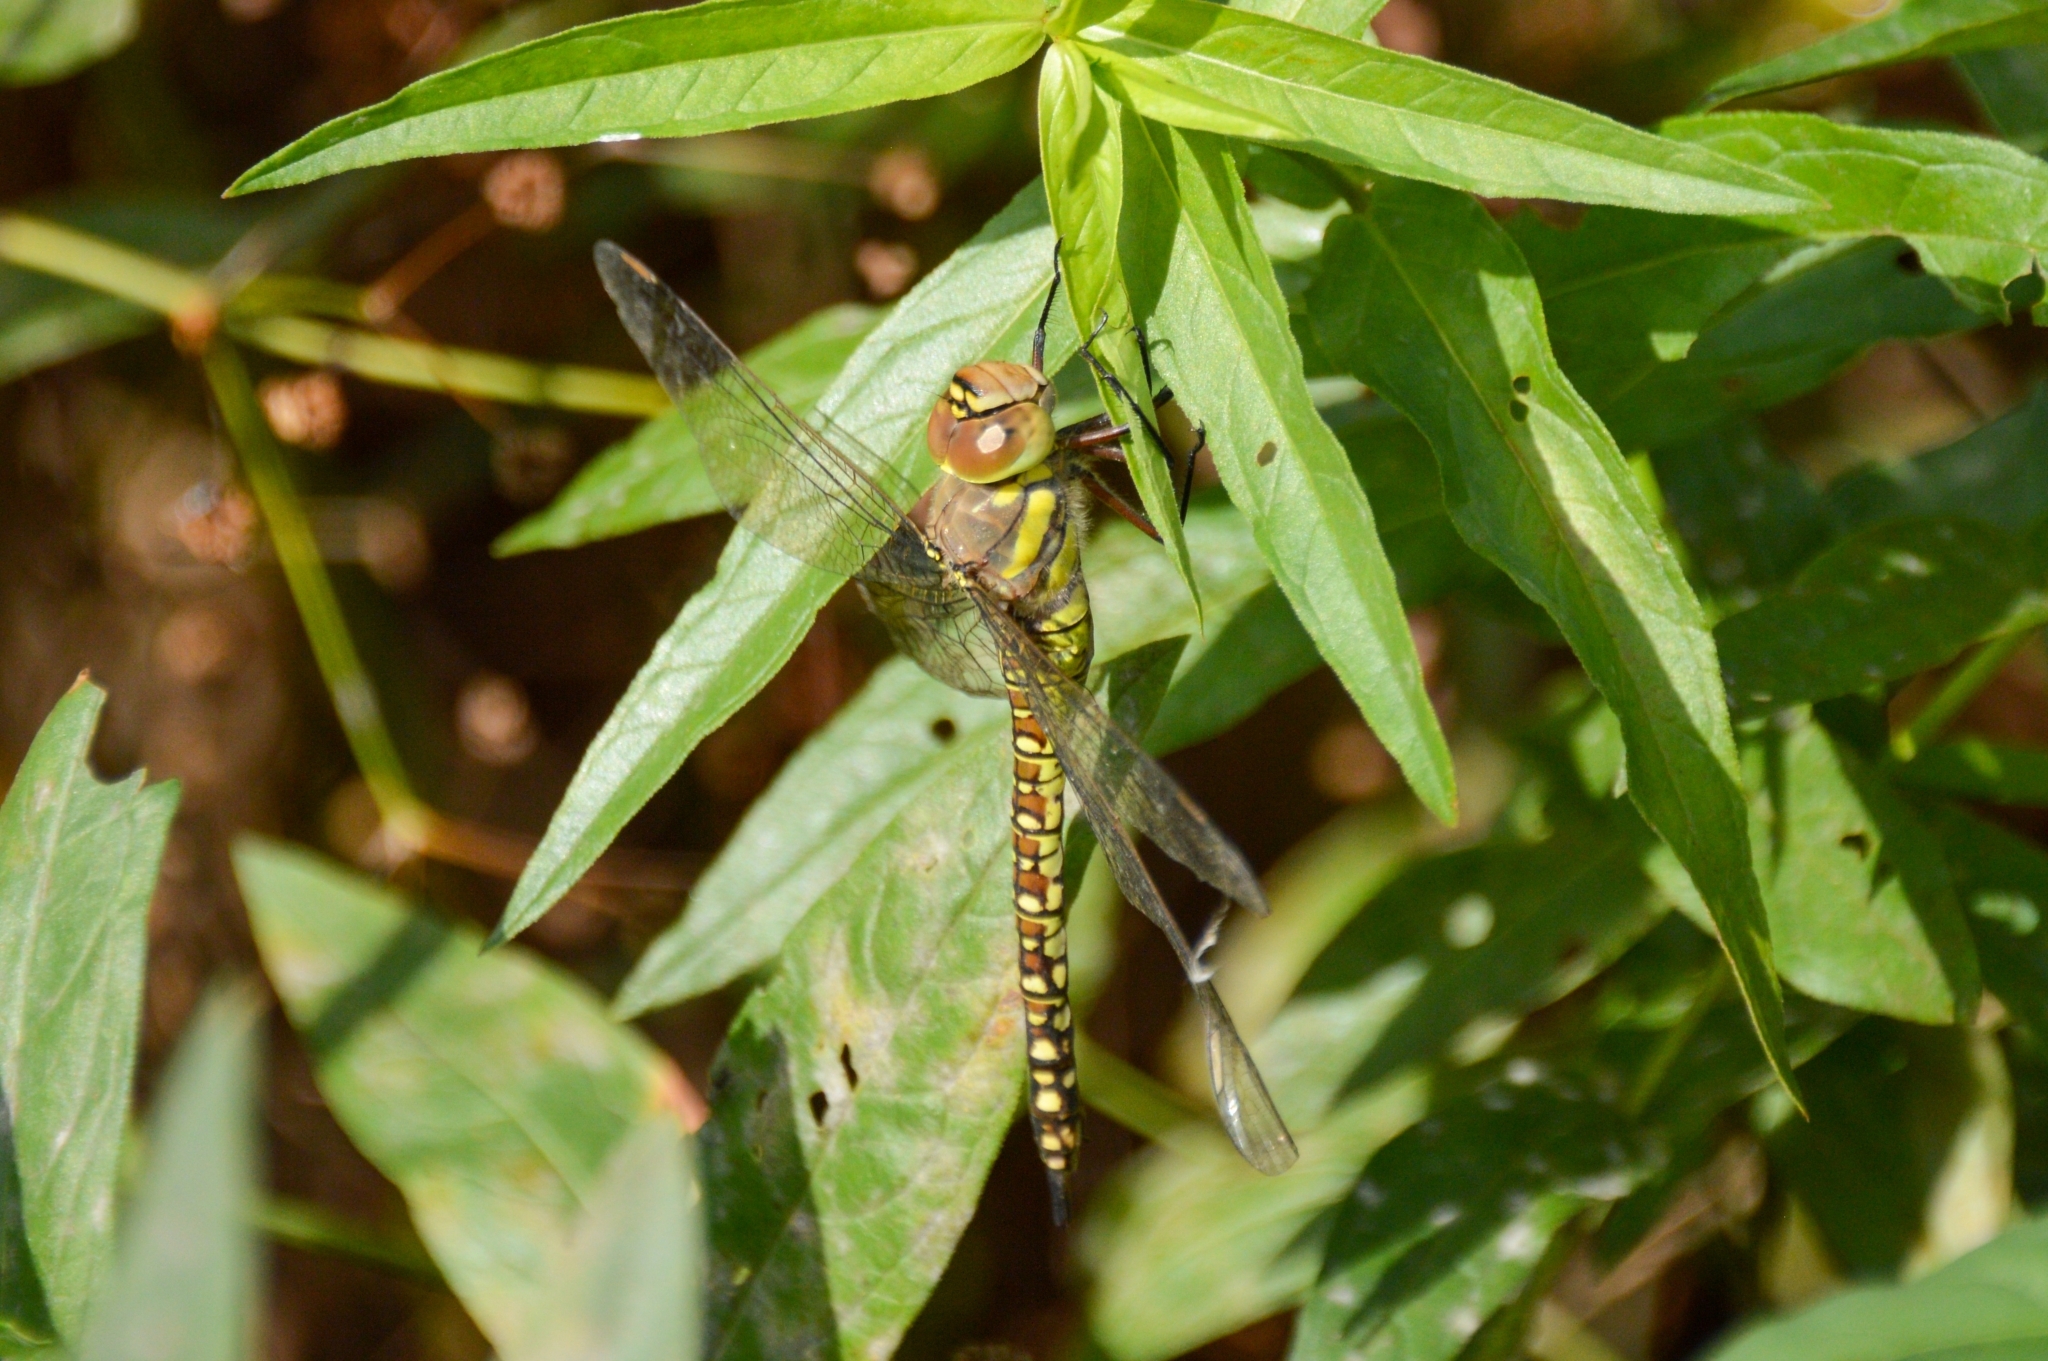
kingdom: Animalia
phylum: Arthropoda
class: Insecta
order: Odonata
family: Aeshnidae
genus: Aeshna
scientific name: Aeshna soneharai
